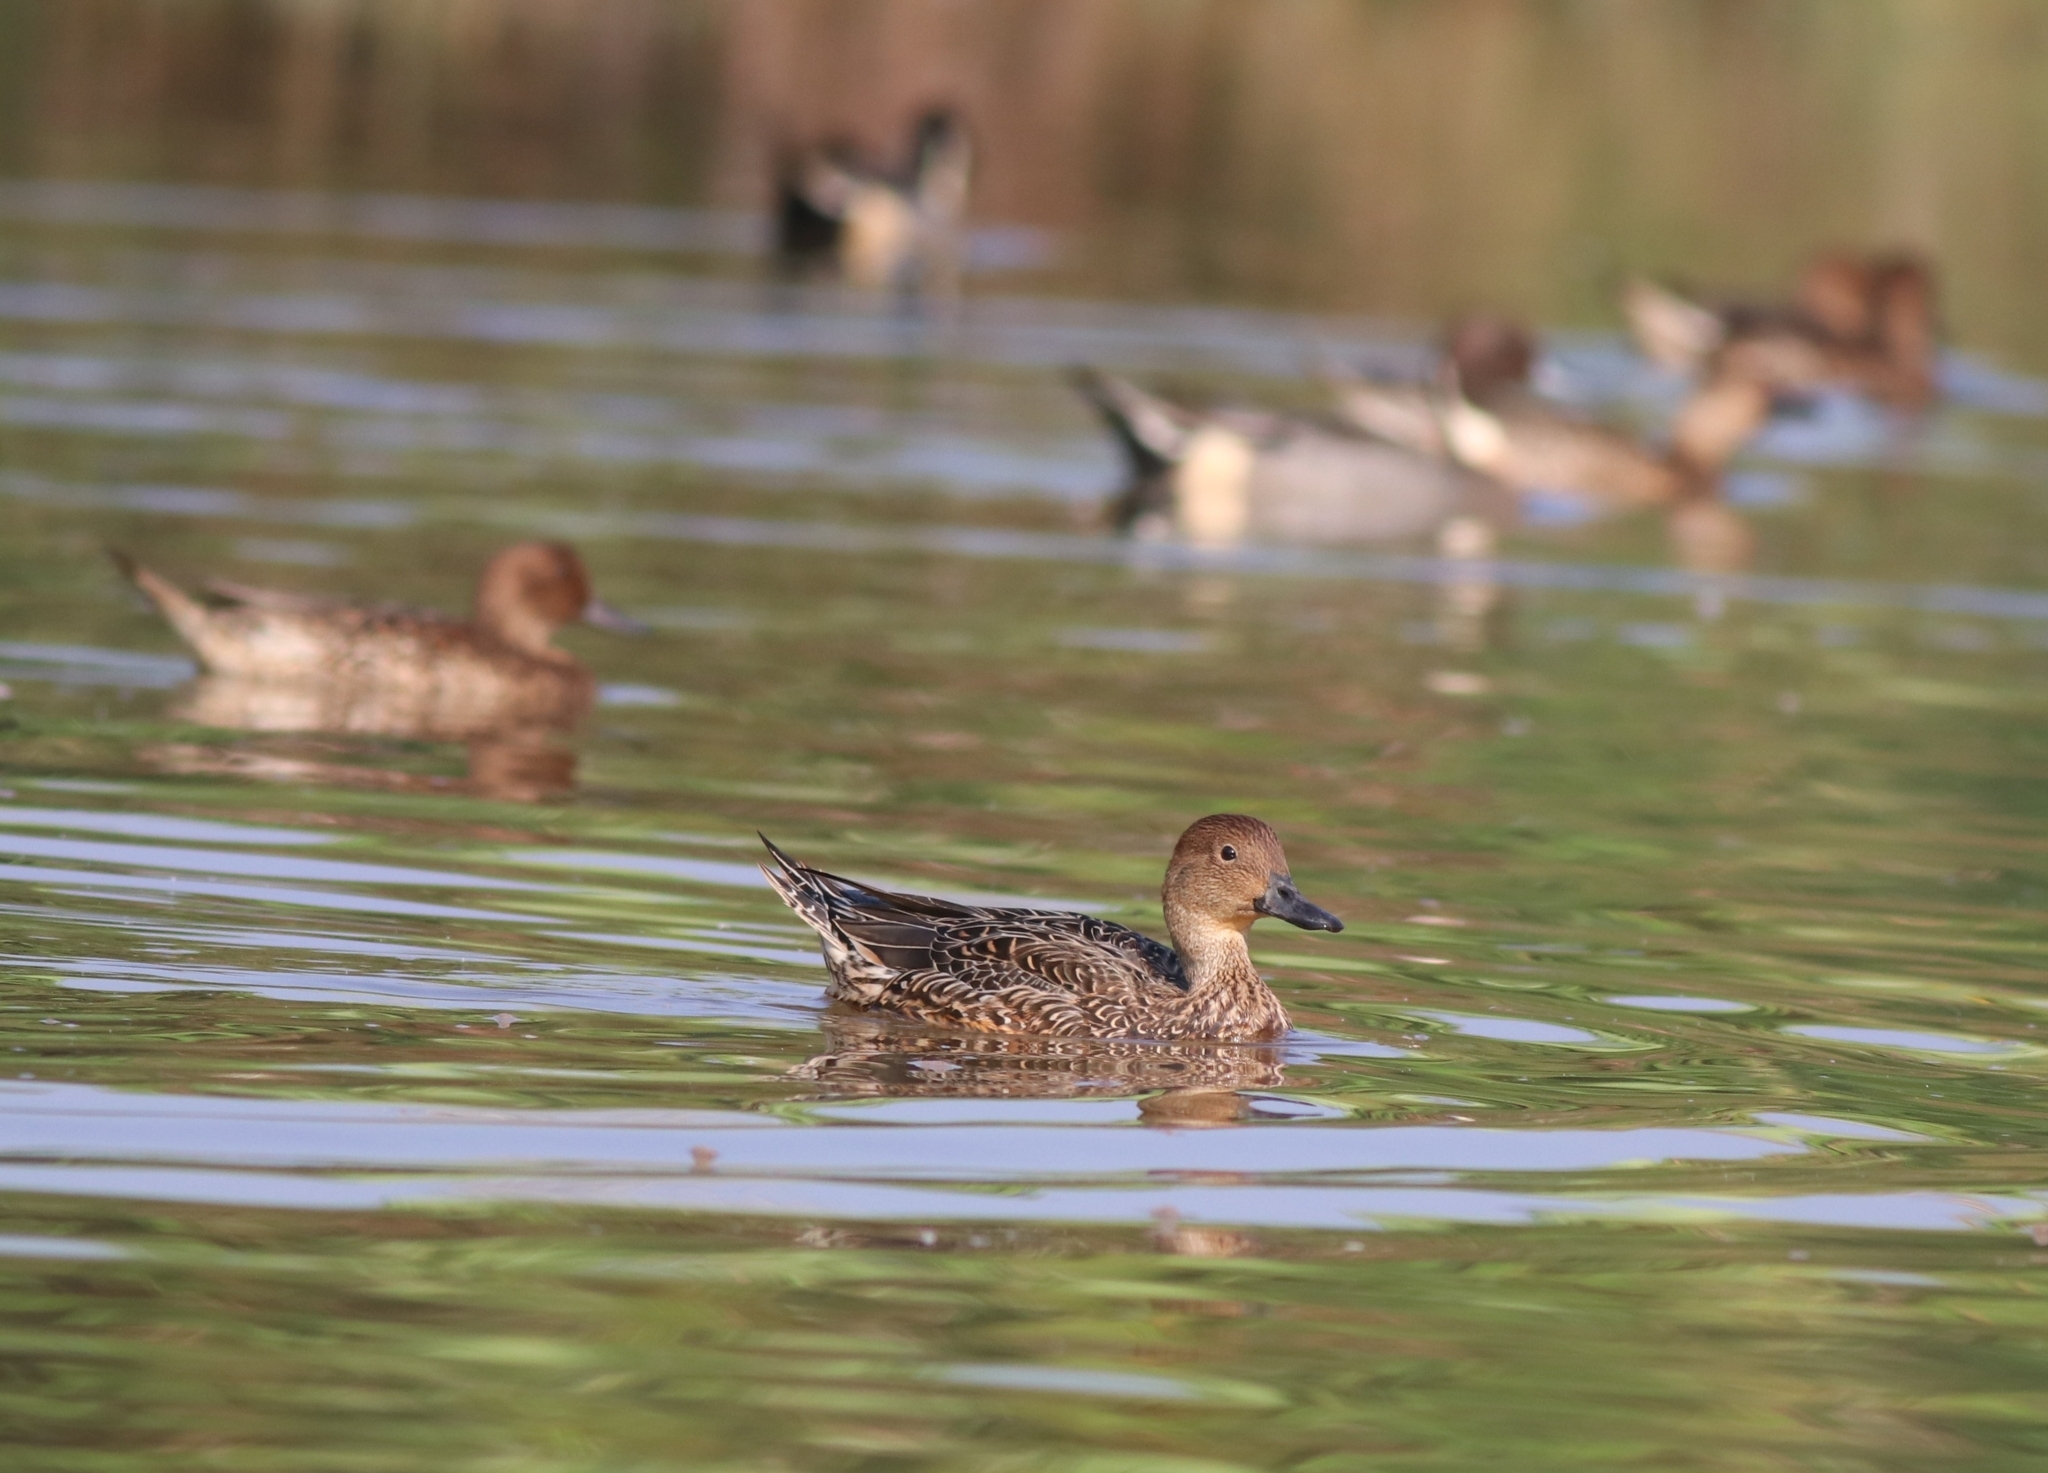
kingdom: Animalia
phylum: Chordata
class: Aves
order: Anseriformes
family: Anatidae
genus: Anas
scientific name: Anas acuta
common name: Northern pintail
